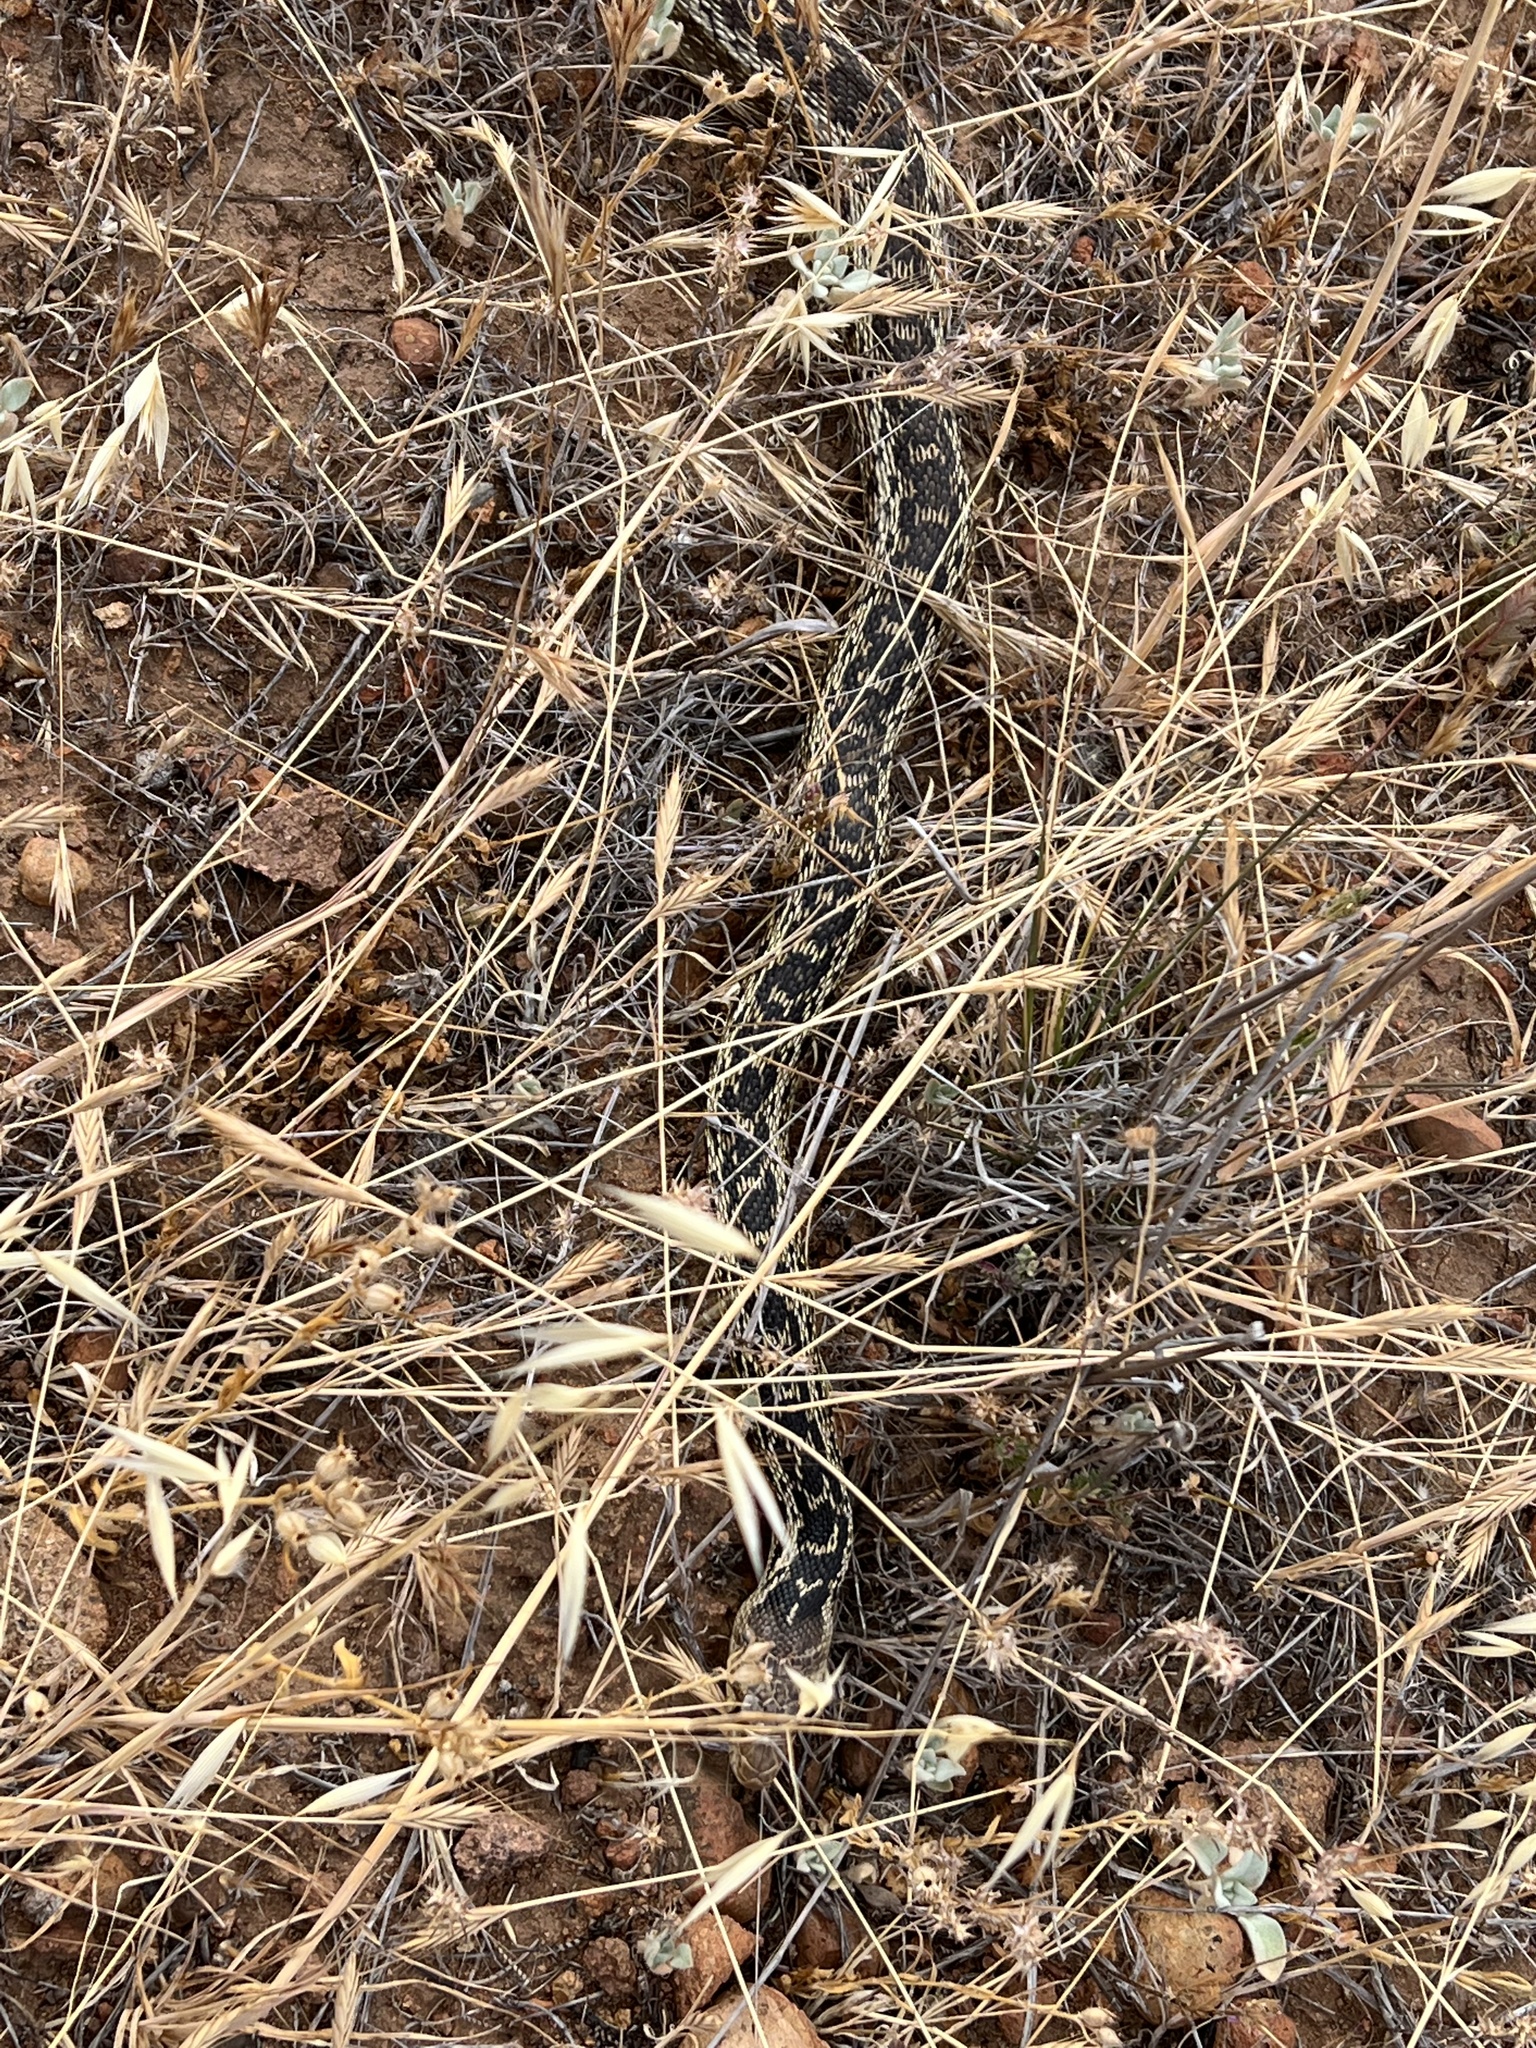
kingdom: Animalia
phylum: Chordata
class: Squamata
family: Colubridae
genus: Pituophis
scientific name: Pituophis catenifer
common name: Gopher snake
